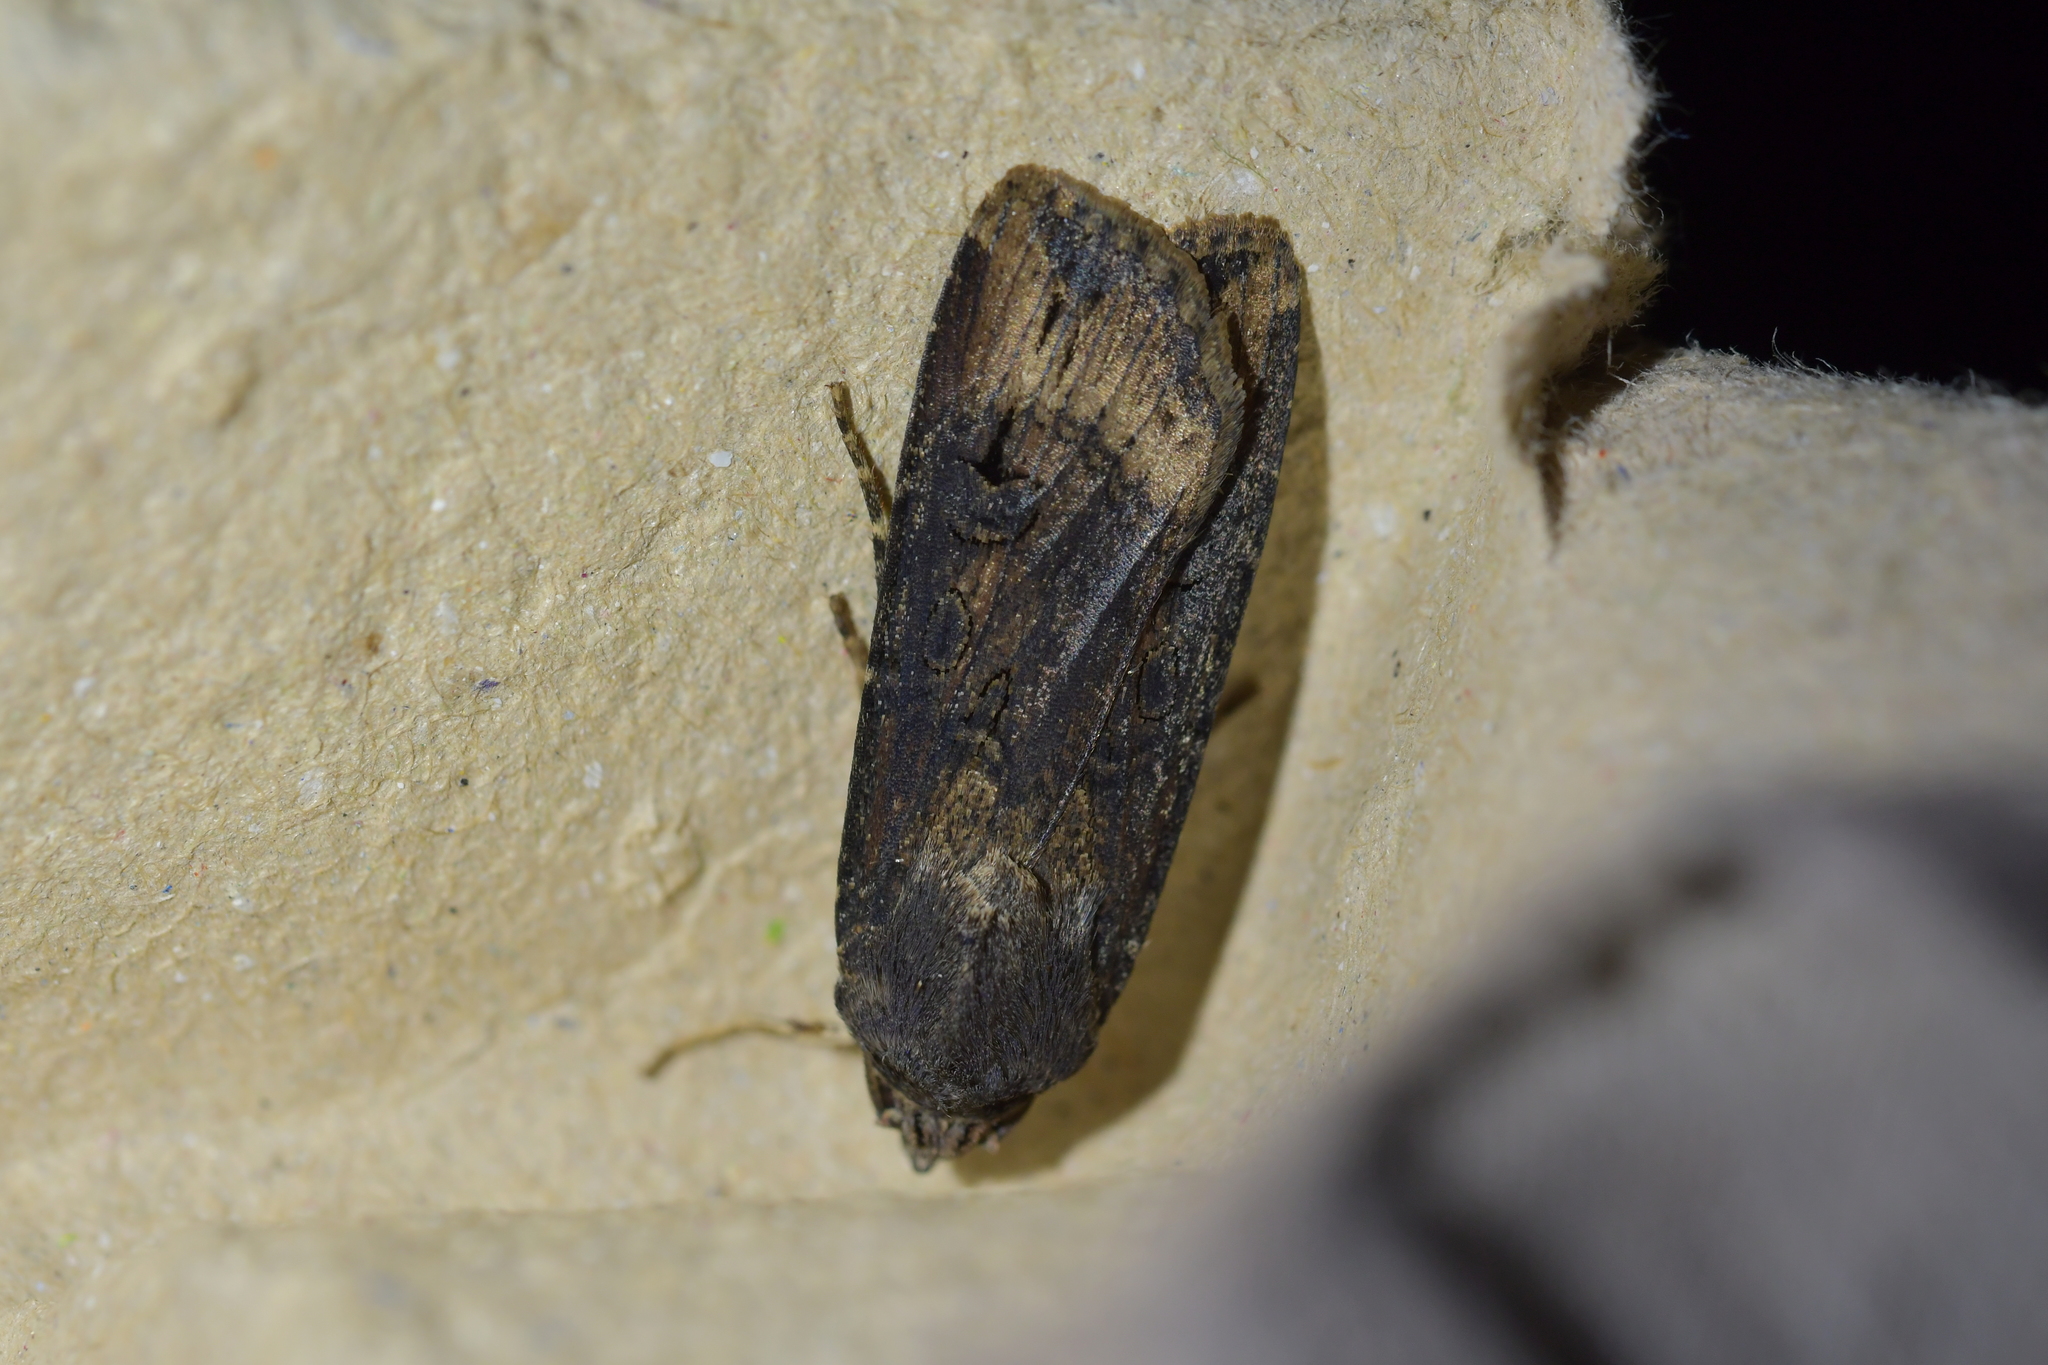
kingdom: Animalia
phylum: Arthropoda
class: Insecta
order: Lepidoptera
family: Noctuidae
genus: Agrotis
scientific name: Agrotis ipsilon
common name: Dark sword-grass
